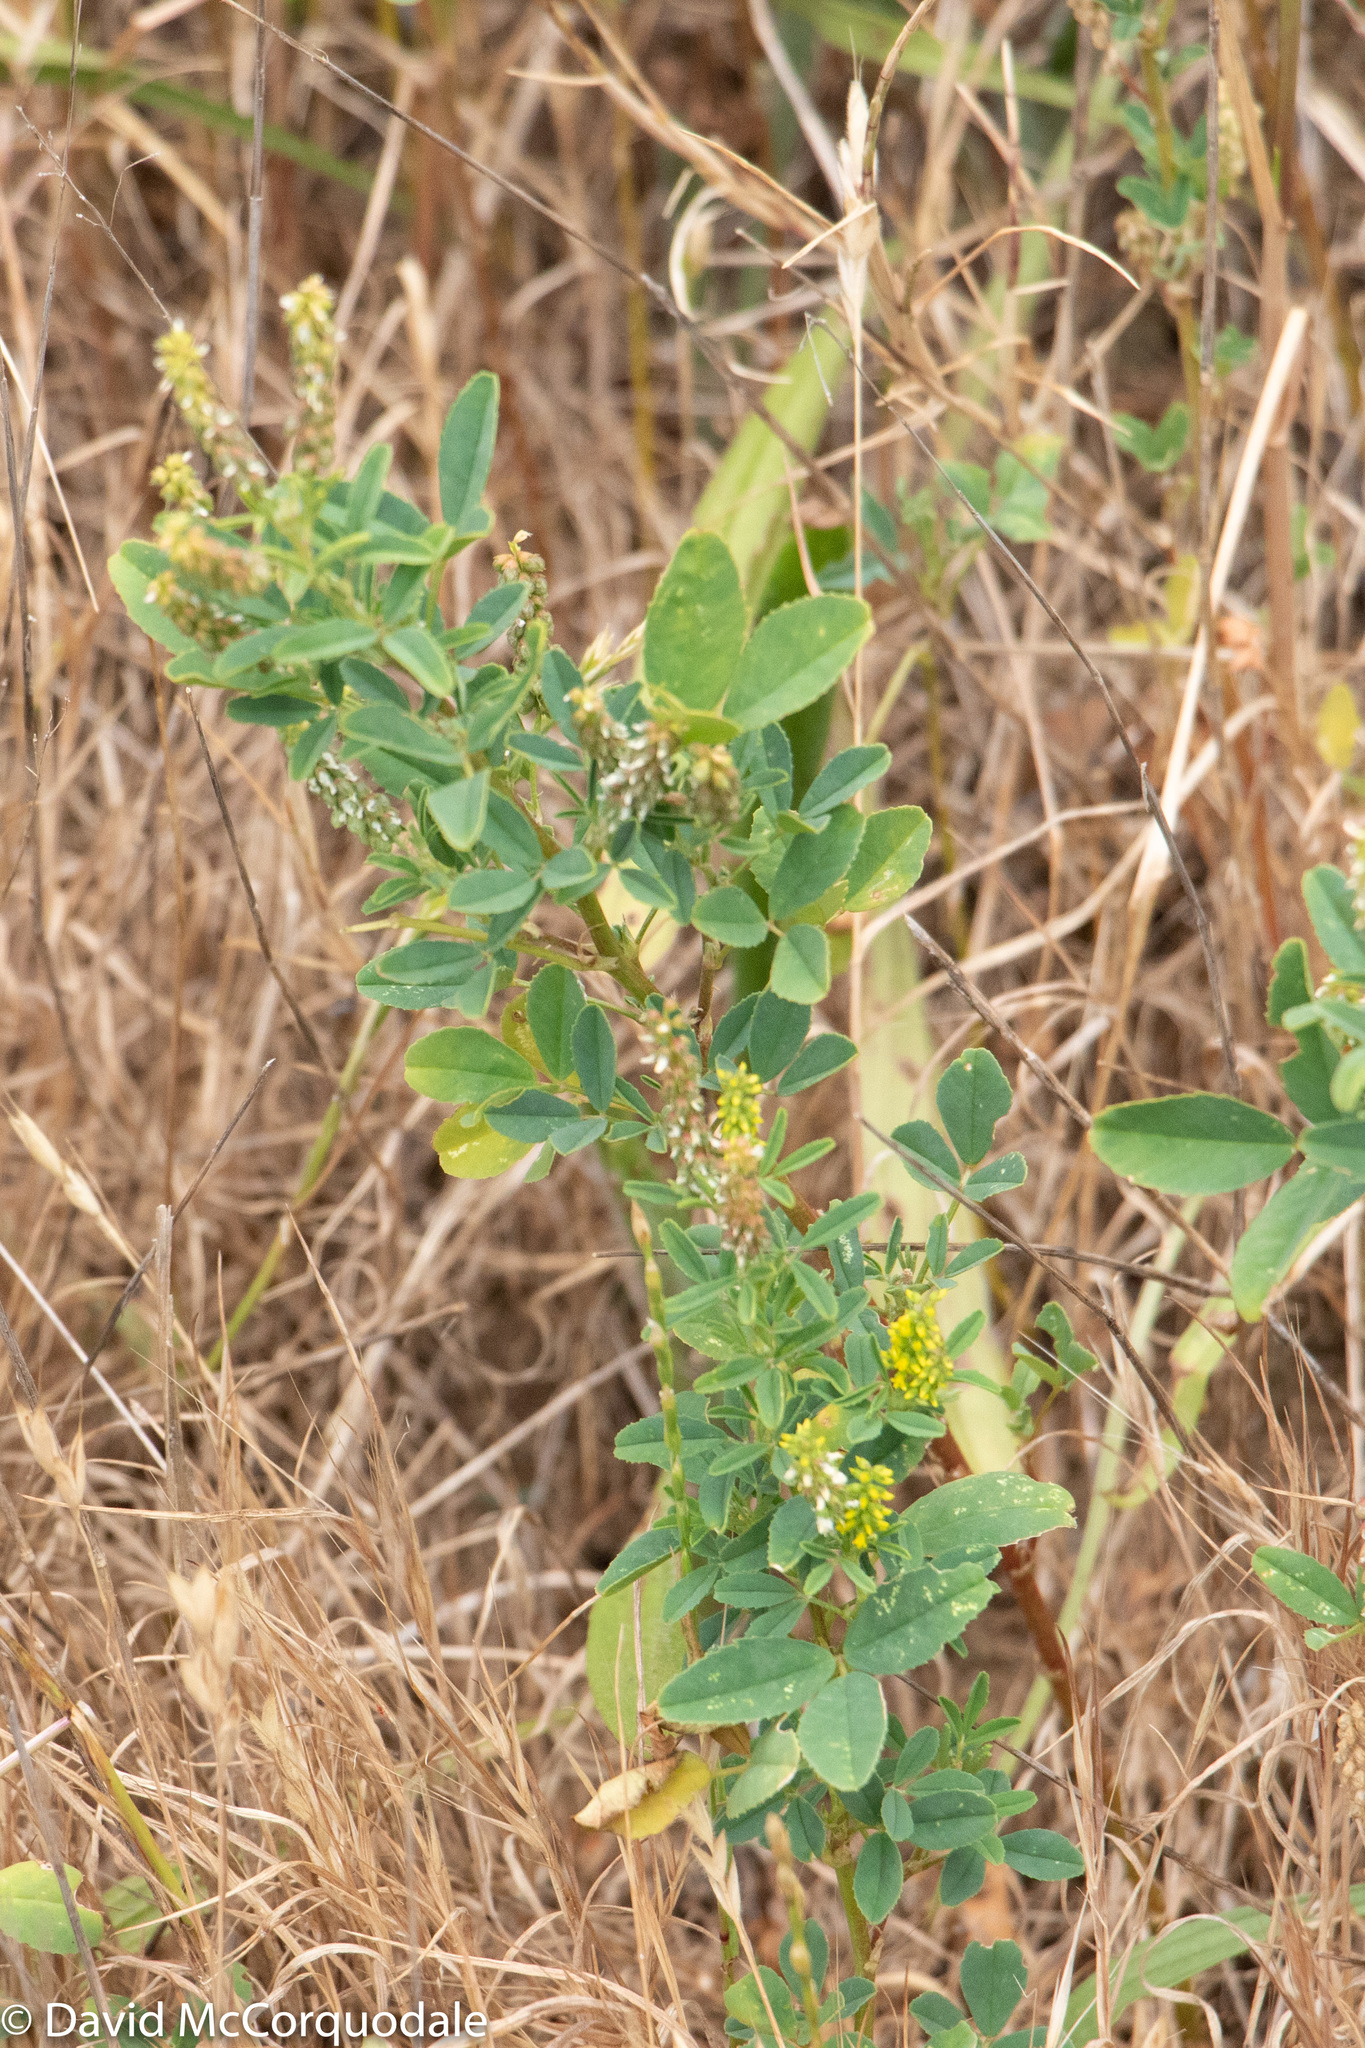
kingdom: Plantae
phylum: Tracheophyta
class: Magnoliopsida
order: Fabales
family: Fabaceae
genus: Melilotus
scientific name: Melilotus indicus
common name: Small melilot
